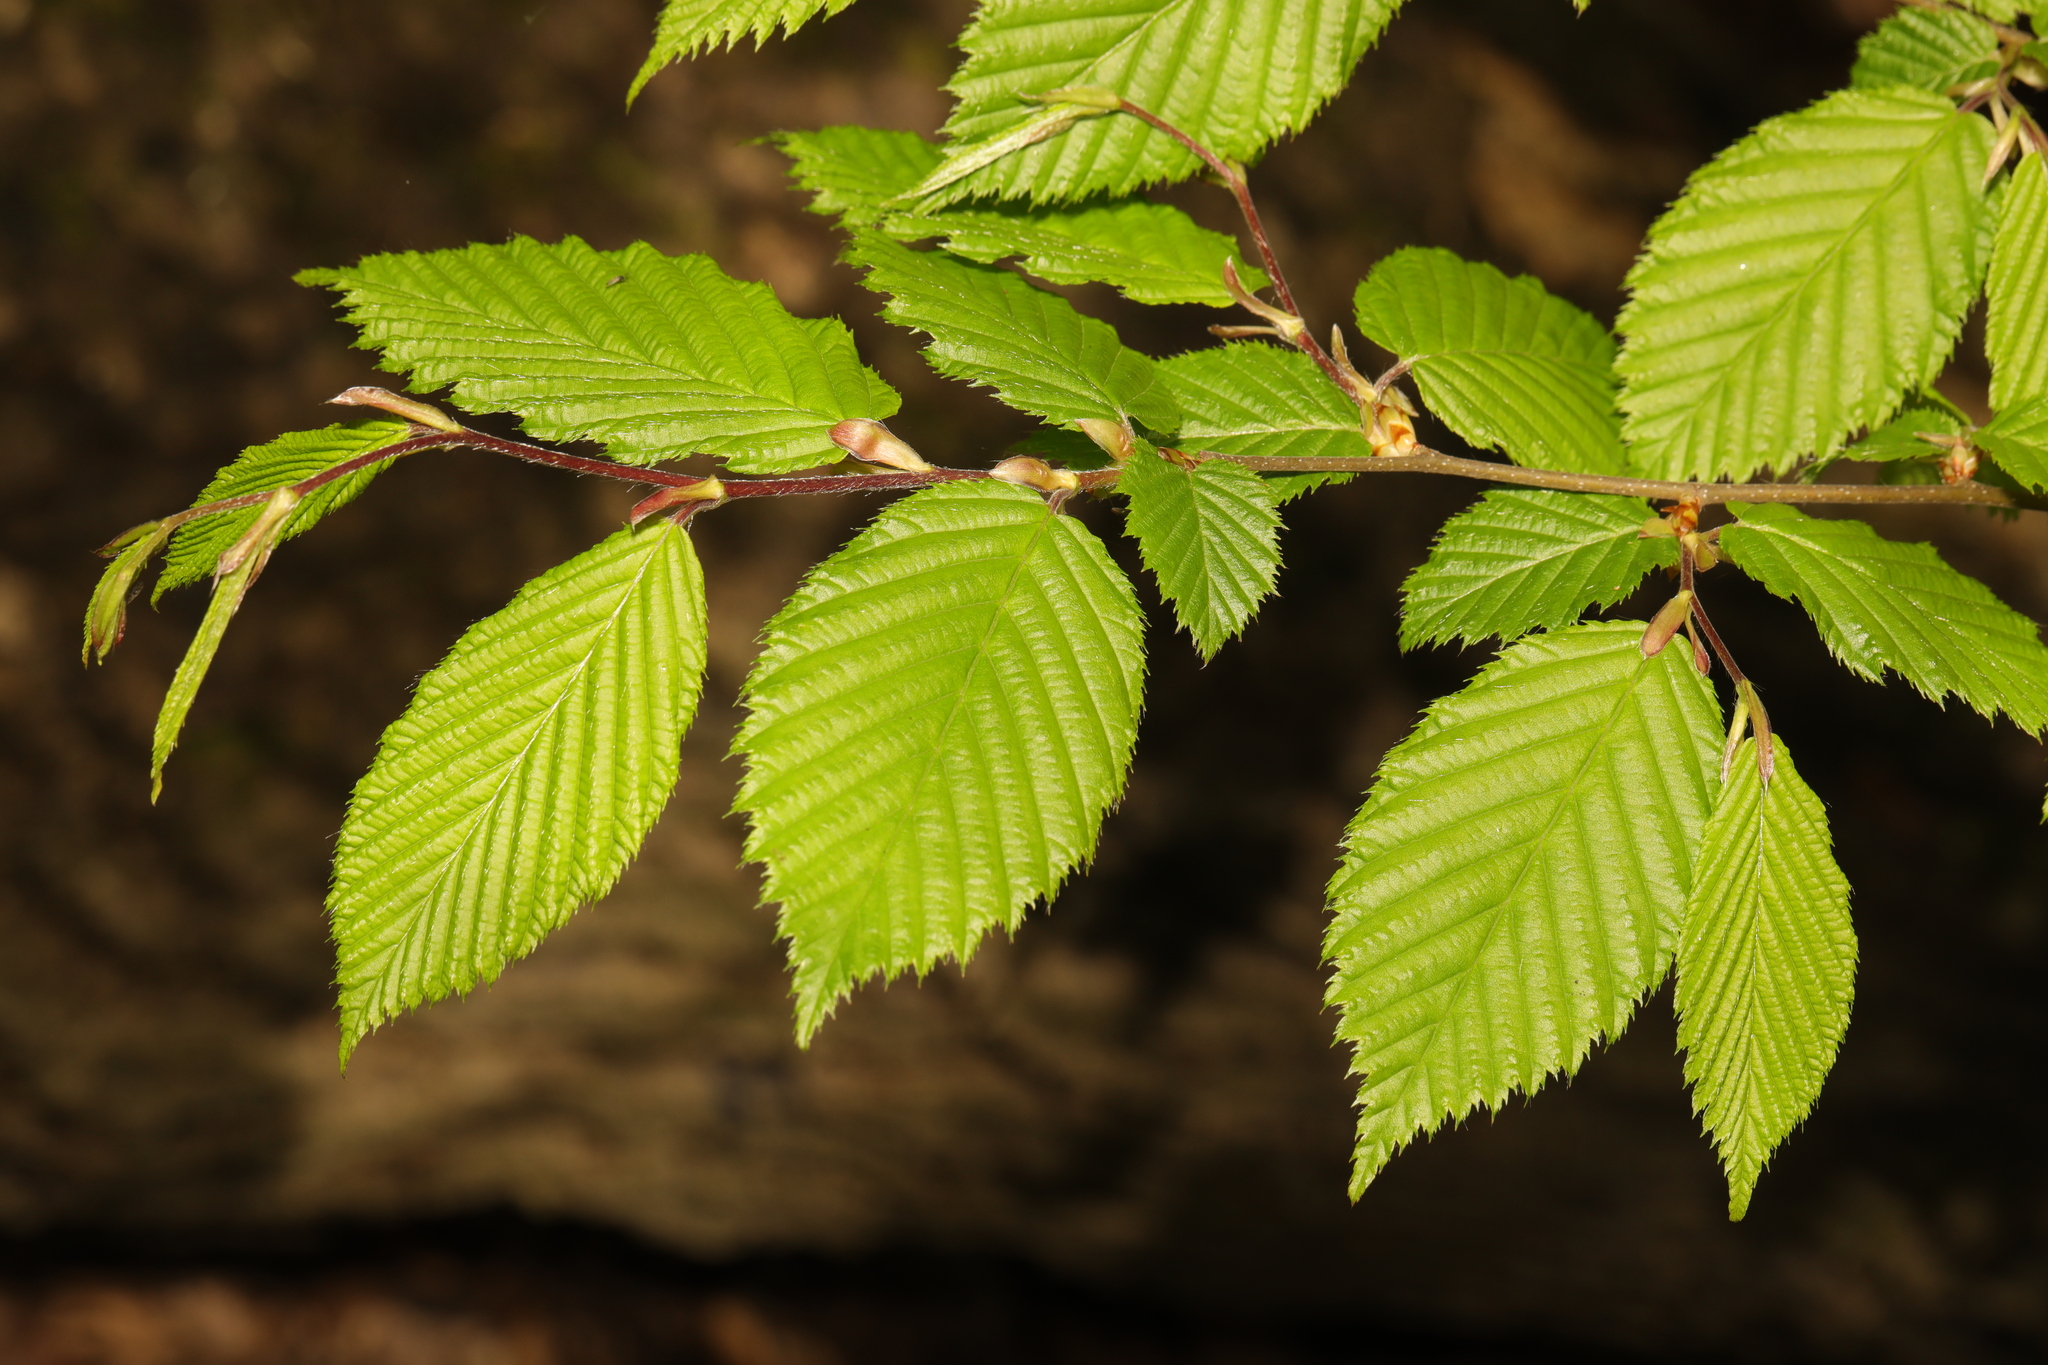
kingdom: Plantae
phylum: Tracheophyta
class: Magnoliopsida
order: Fagales
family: Betulaceae
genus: Carpinus
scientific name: Carpinus betulus
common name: Hornbeam
